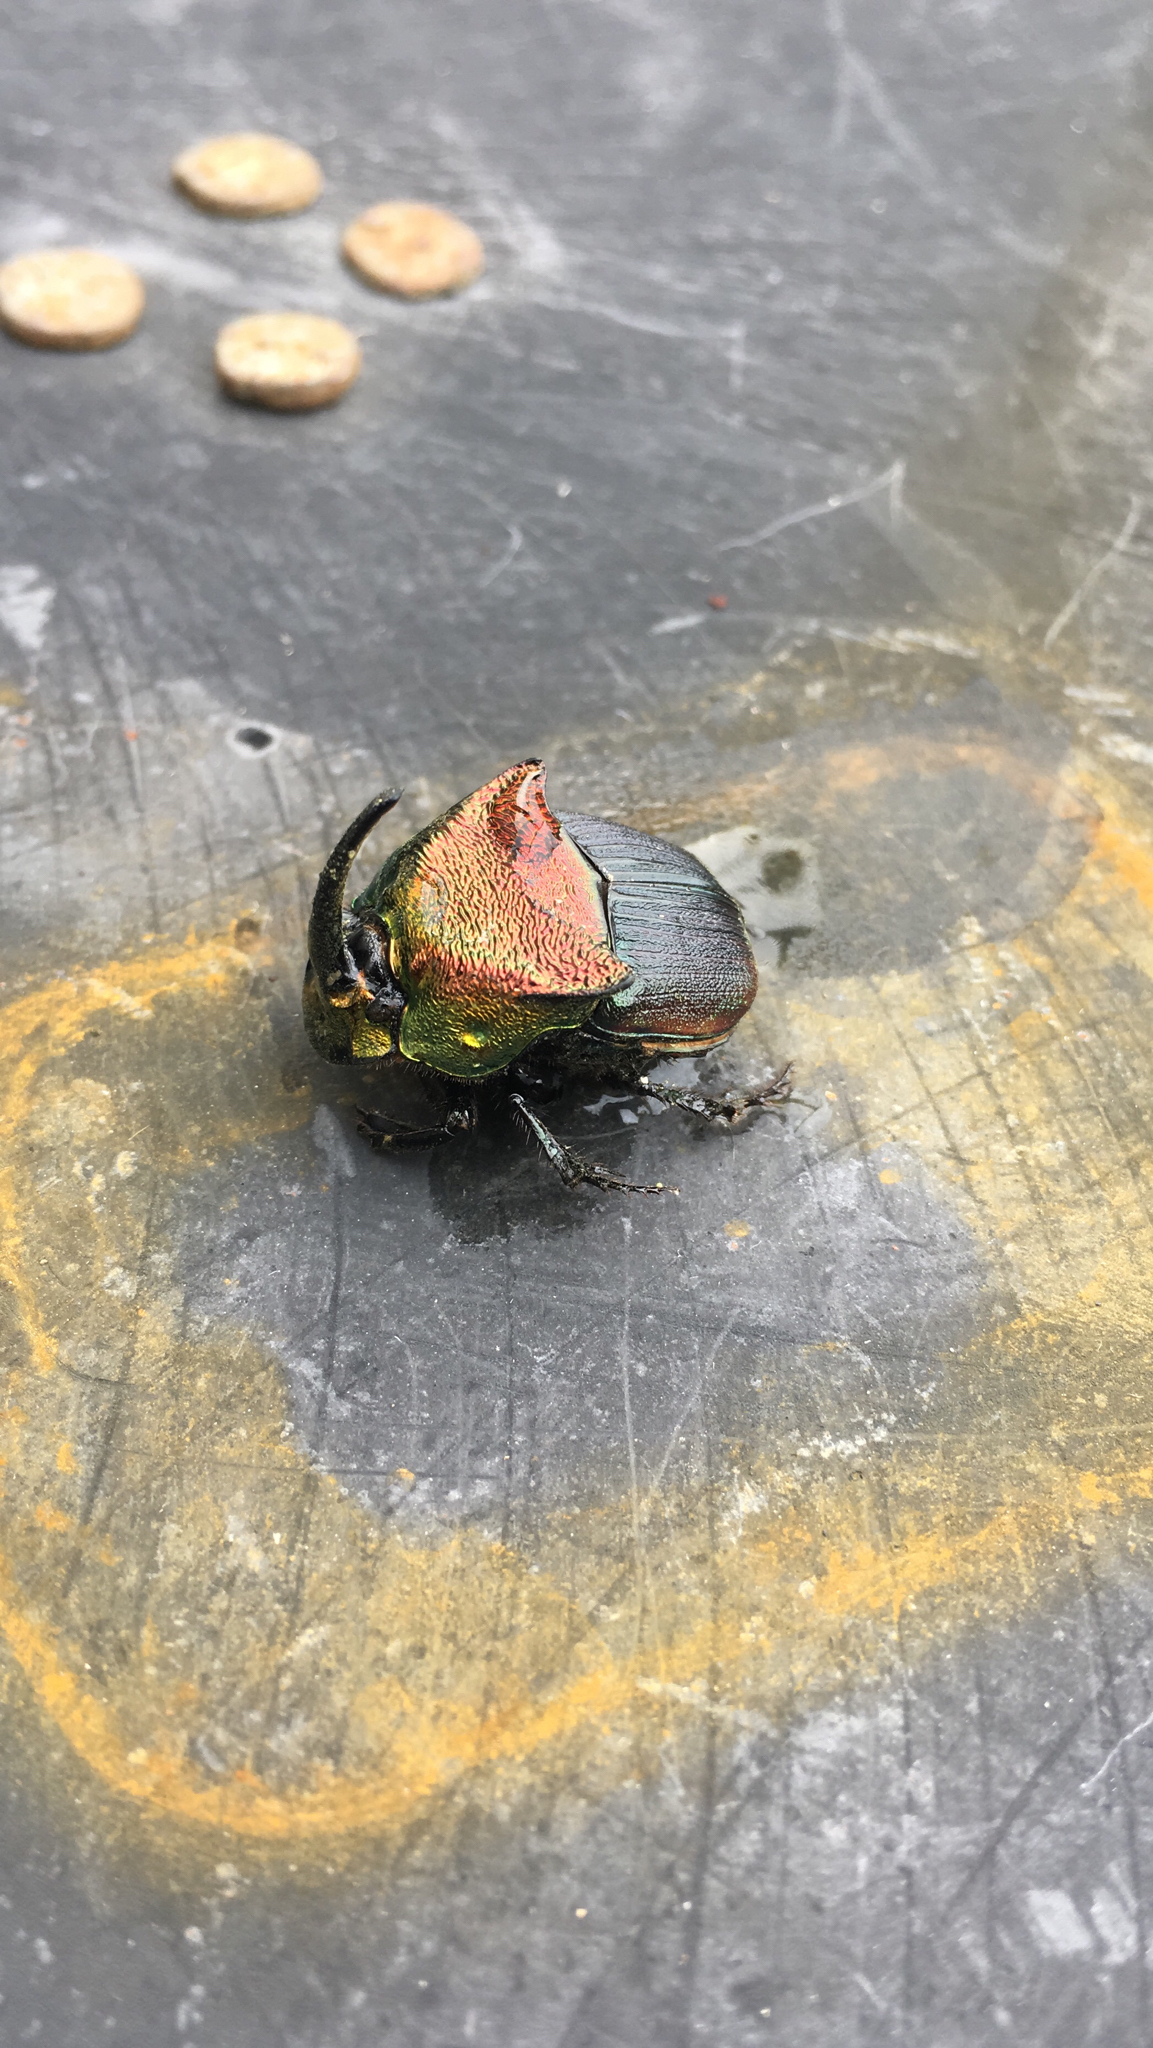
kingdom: Animalia
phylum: Arthropoda
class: Insecta
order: Coleoptera
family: Scarabaeidae
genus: Phanaeus
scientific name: Phanaeus vindex
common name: Rainbow scarab
